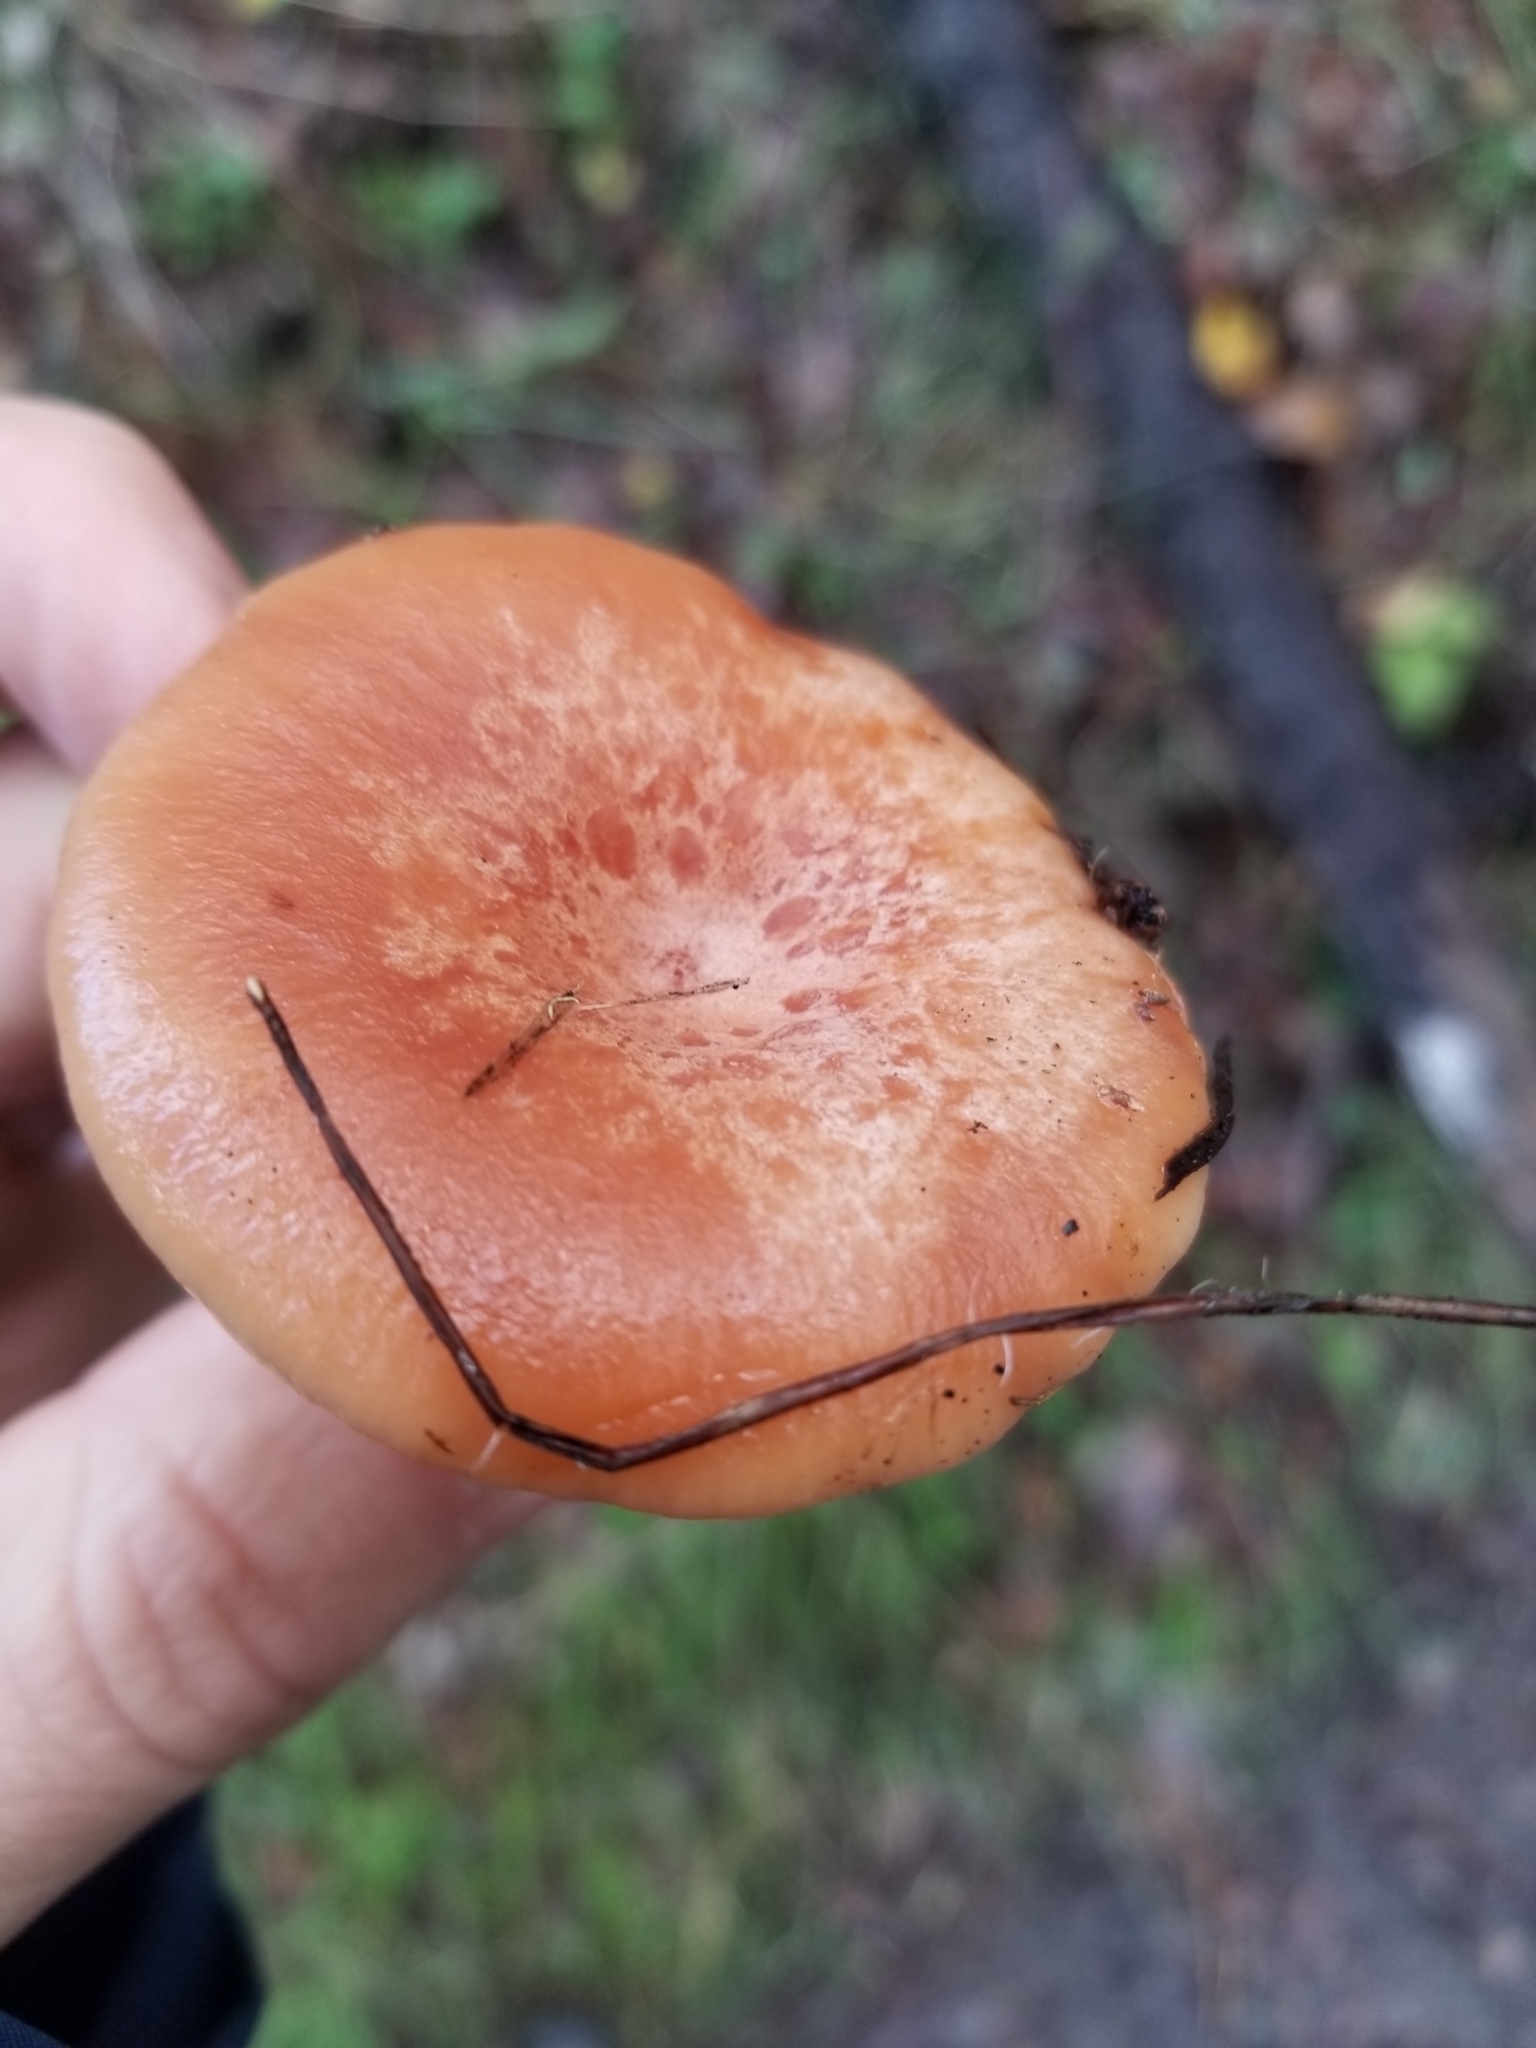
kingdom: Fungi
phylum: Basidiomycota
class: Agaricomycetes
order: Russulales
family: Russulaceae
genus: Lactarius
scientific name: Lactarius xanthogalactus
